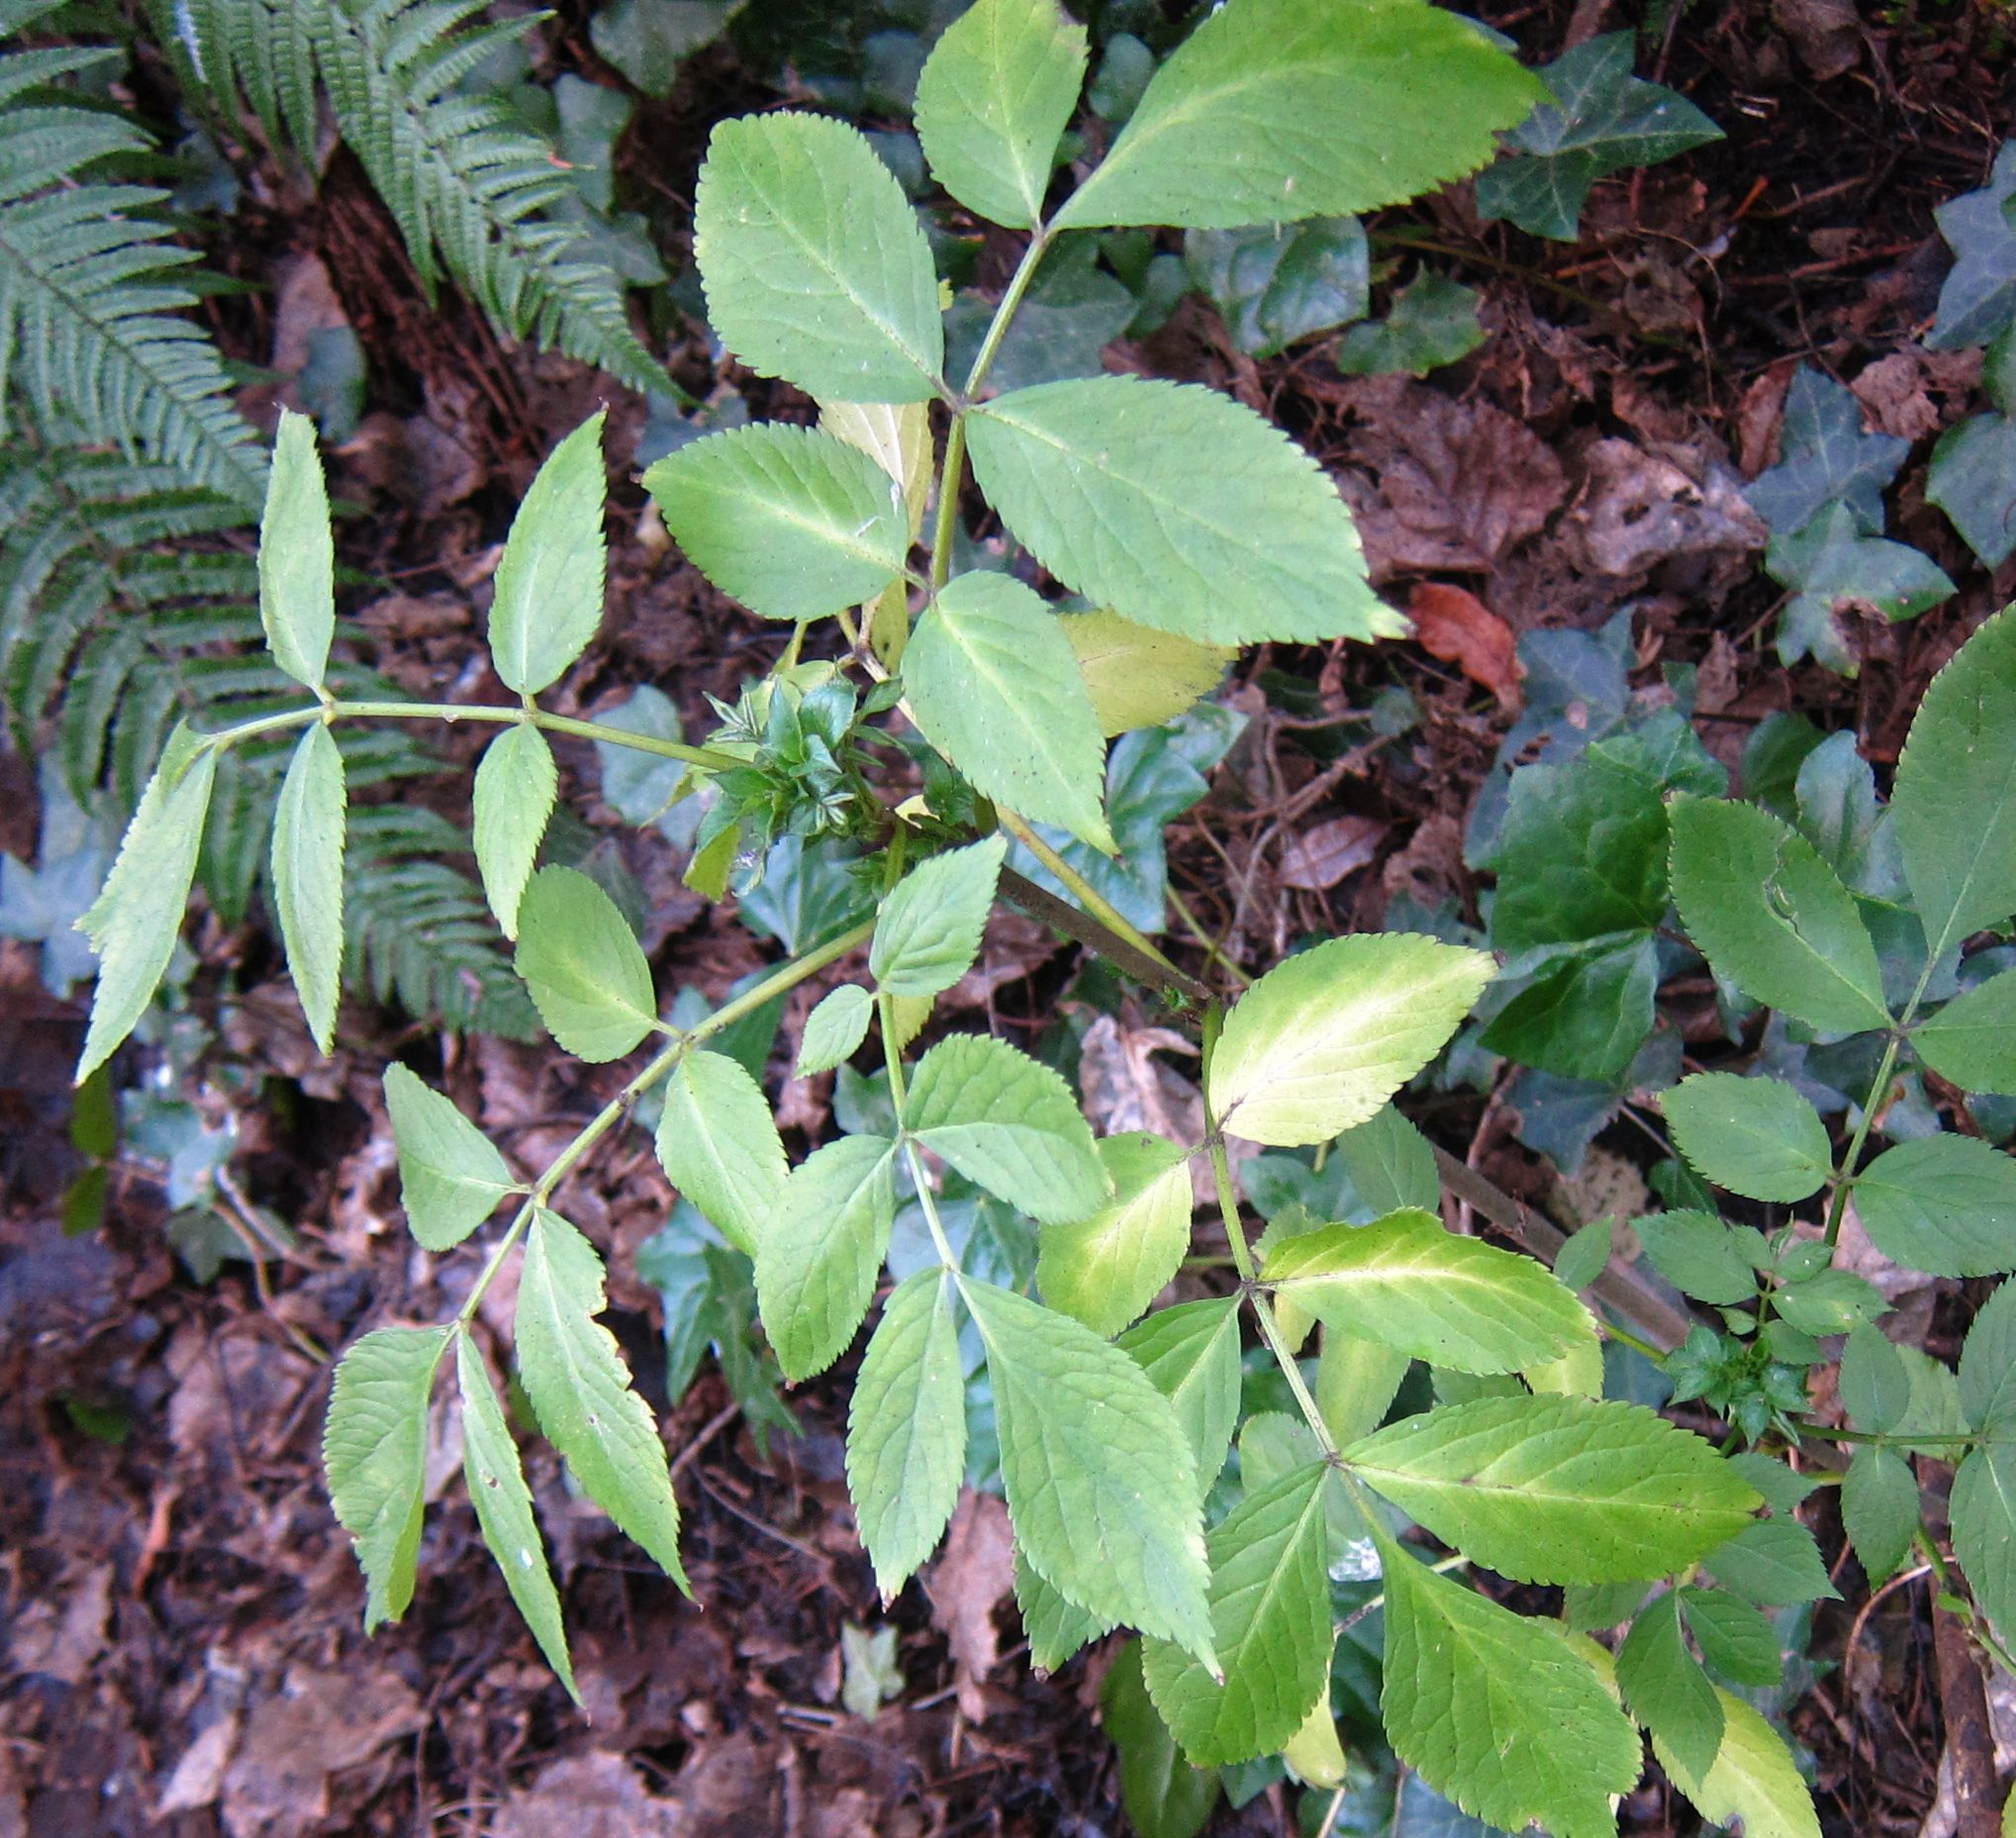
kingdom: Plantae
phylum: Tracheophyta
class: Magnoliopsida
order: Dipsacales
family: Viburnaceae
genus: Sambucus
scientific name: Sambucus nigra
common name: Elder
